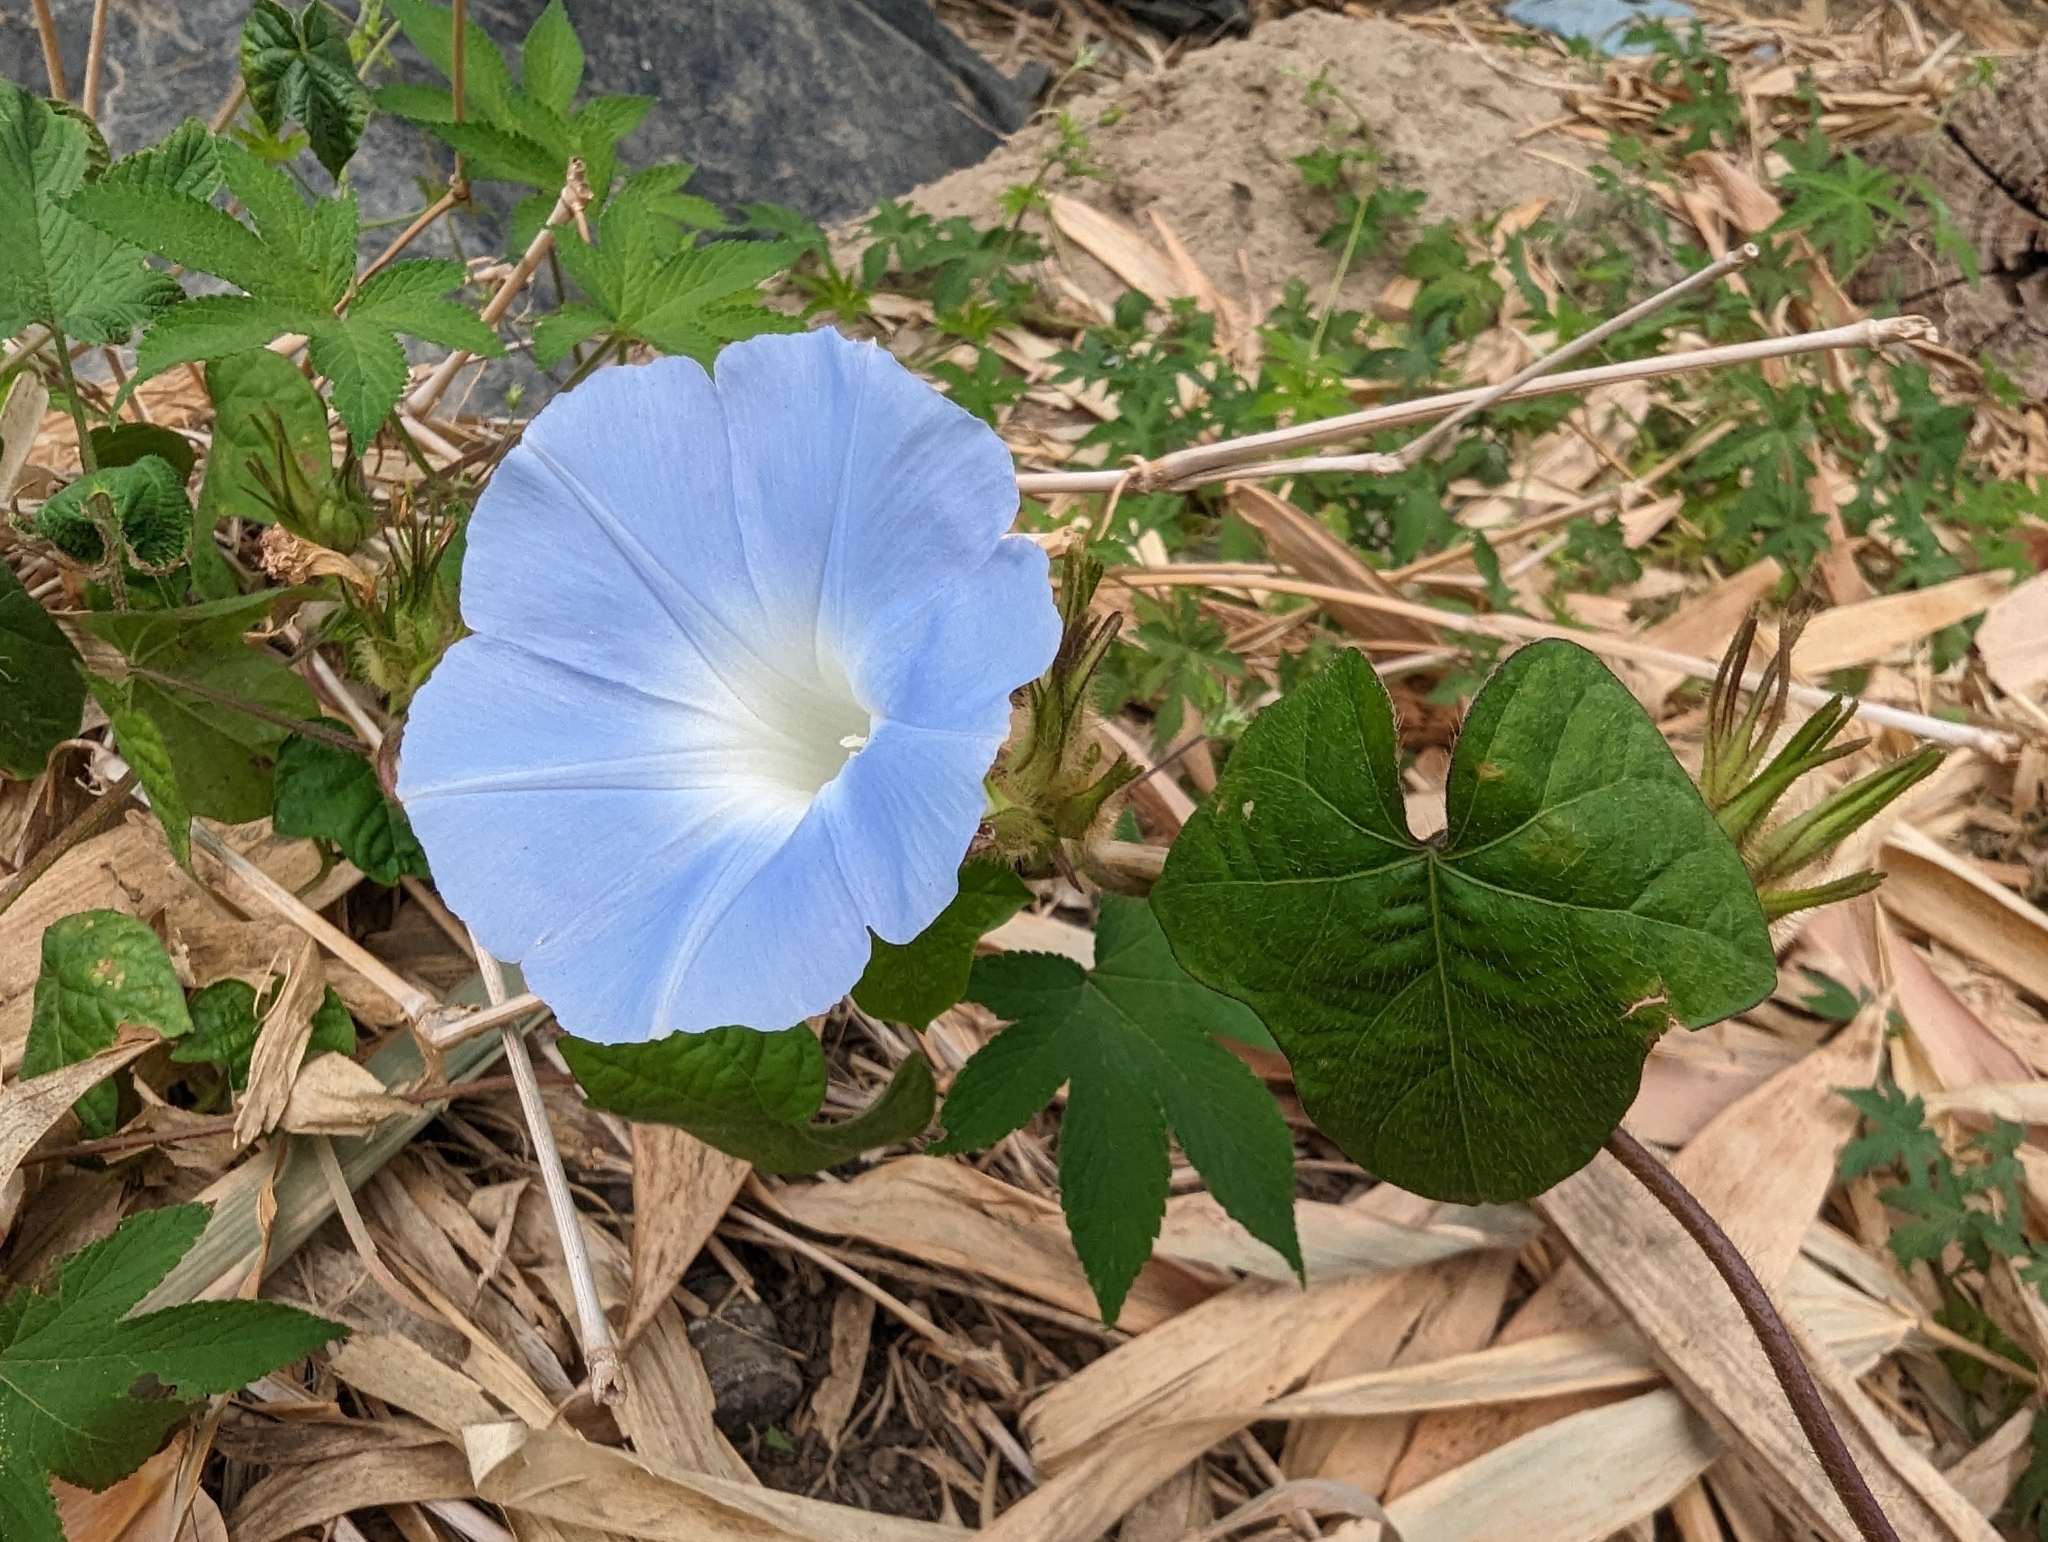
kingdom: Plantae
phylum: Tracheophyta
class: Magnoliopsida
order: Solanales
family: Convolvulaceae
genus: Ipomoea
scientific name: Ipomoea nil
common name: Japanese morning-glory
